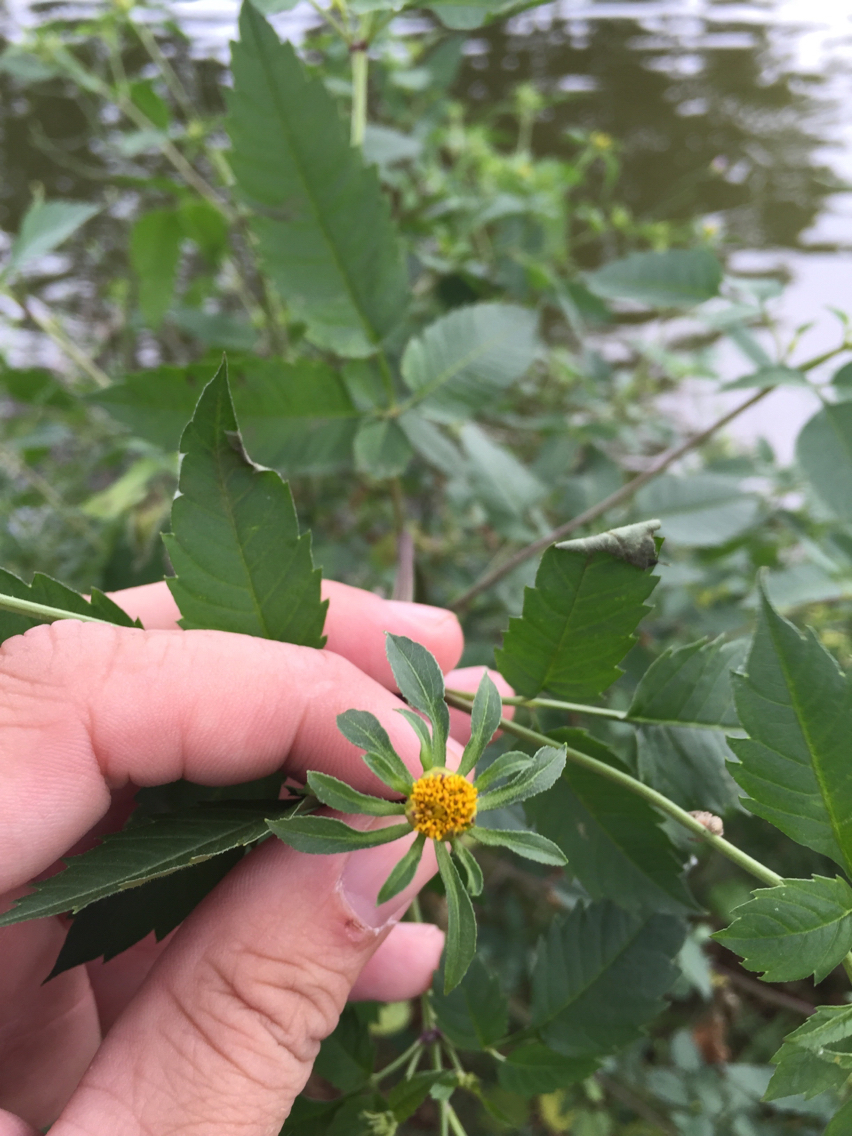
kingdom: Plantae
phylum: Tracheophyta
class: Magnoliopsida
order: Asterales
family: Asteraceae
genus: Bidens
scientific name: Bidens frondosa
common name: Beggarticks
